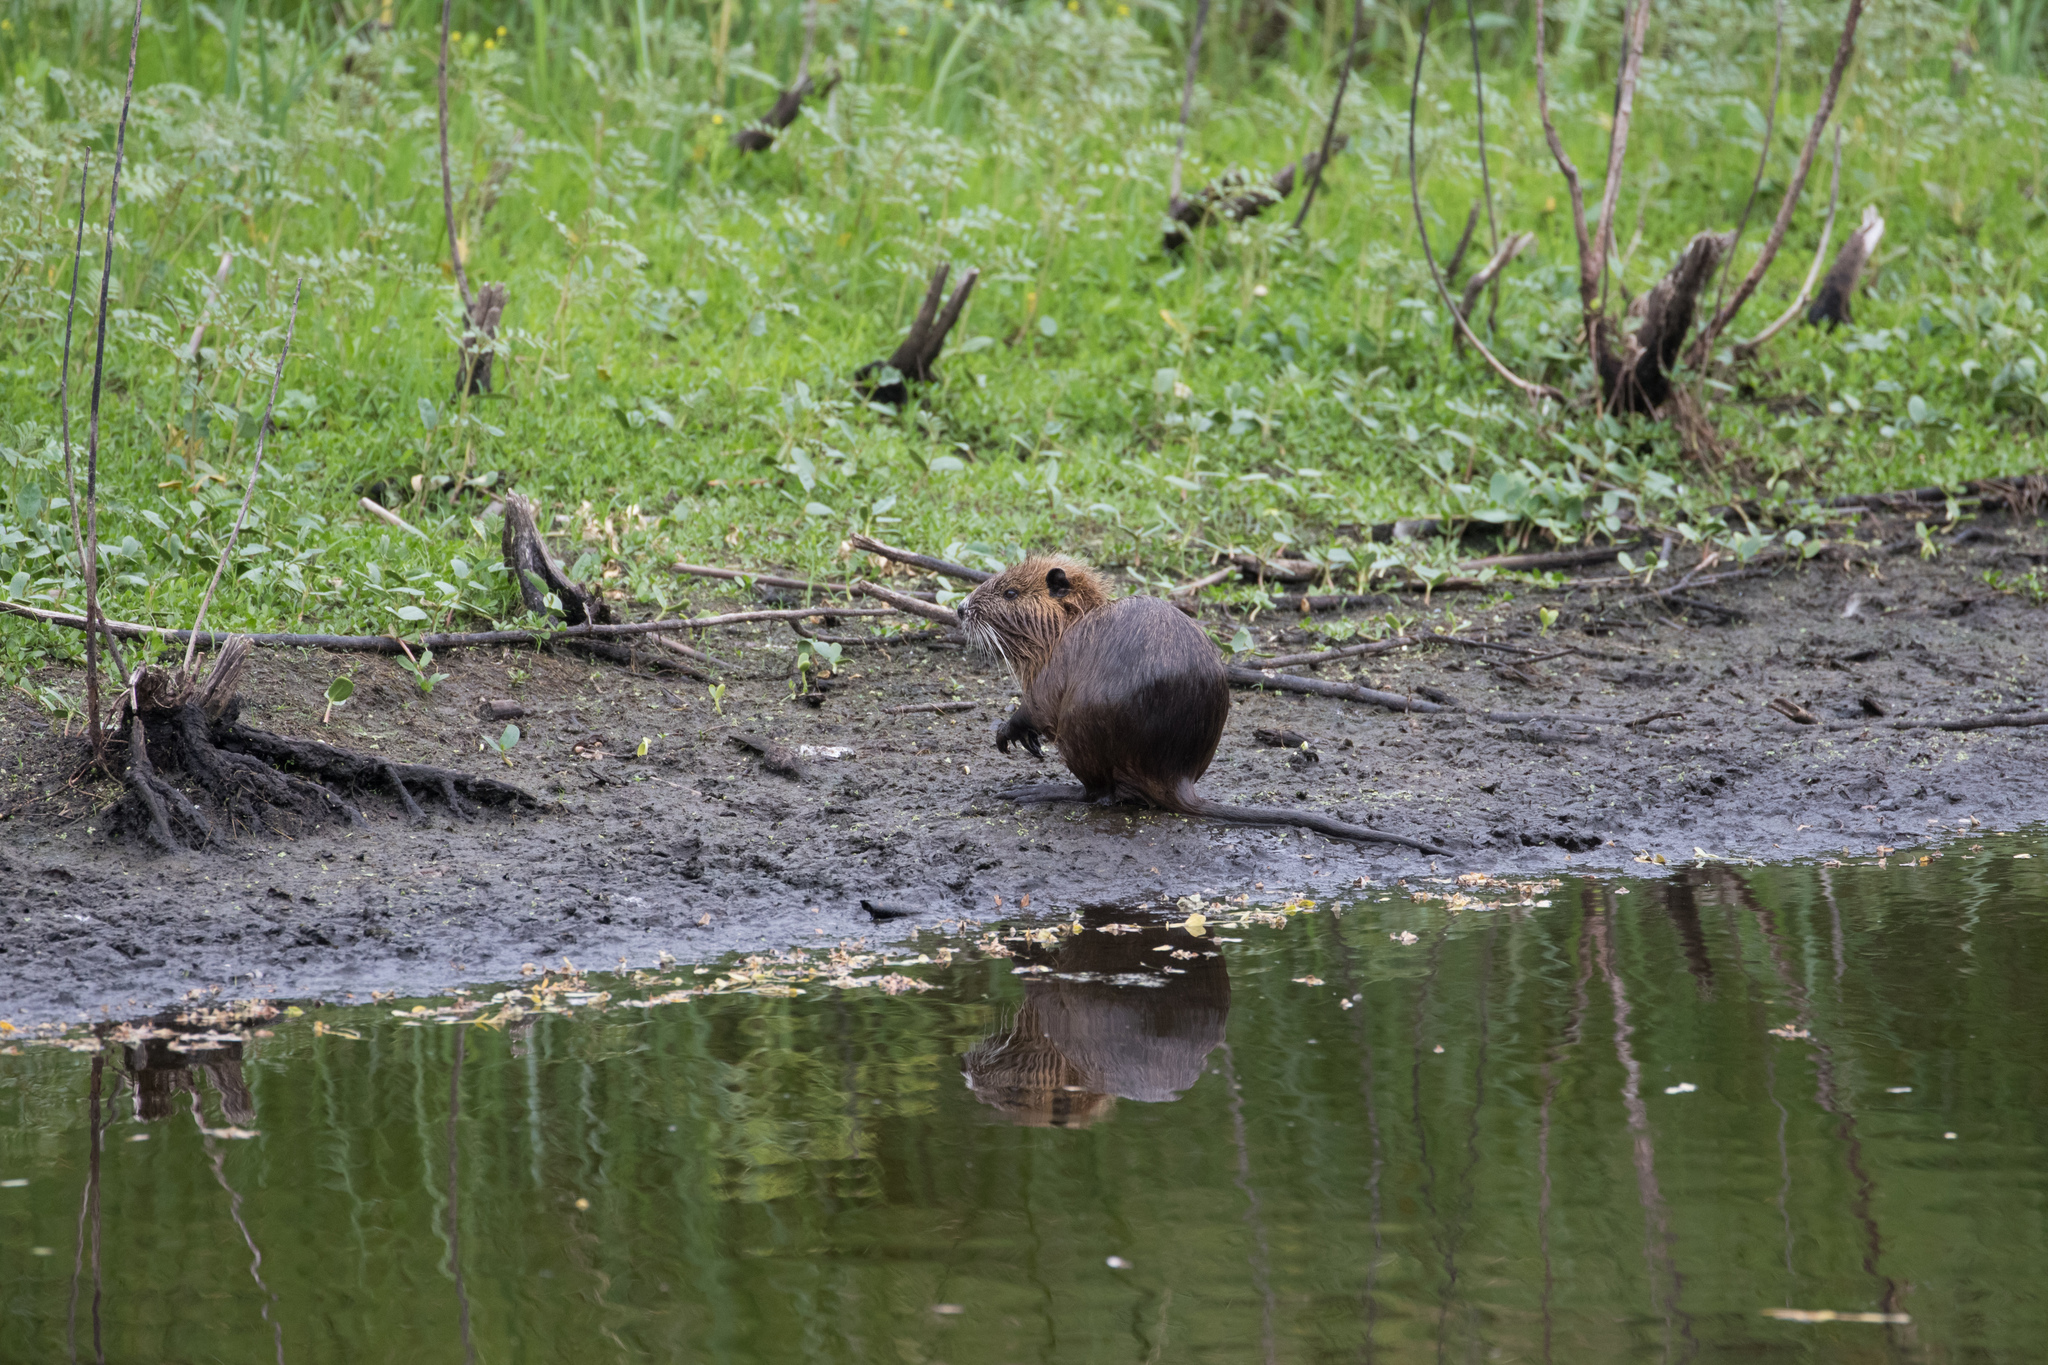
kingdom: Animalia
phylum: Chordata
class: Mammalia
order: Rodentia
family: Myocastoridae
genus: Myocastor
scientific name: Myocastor coypus
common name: Coypu
